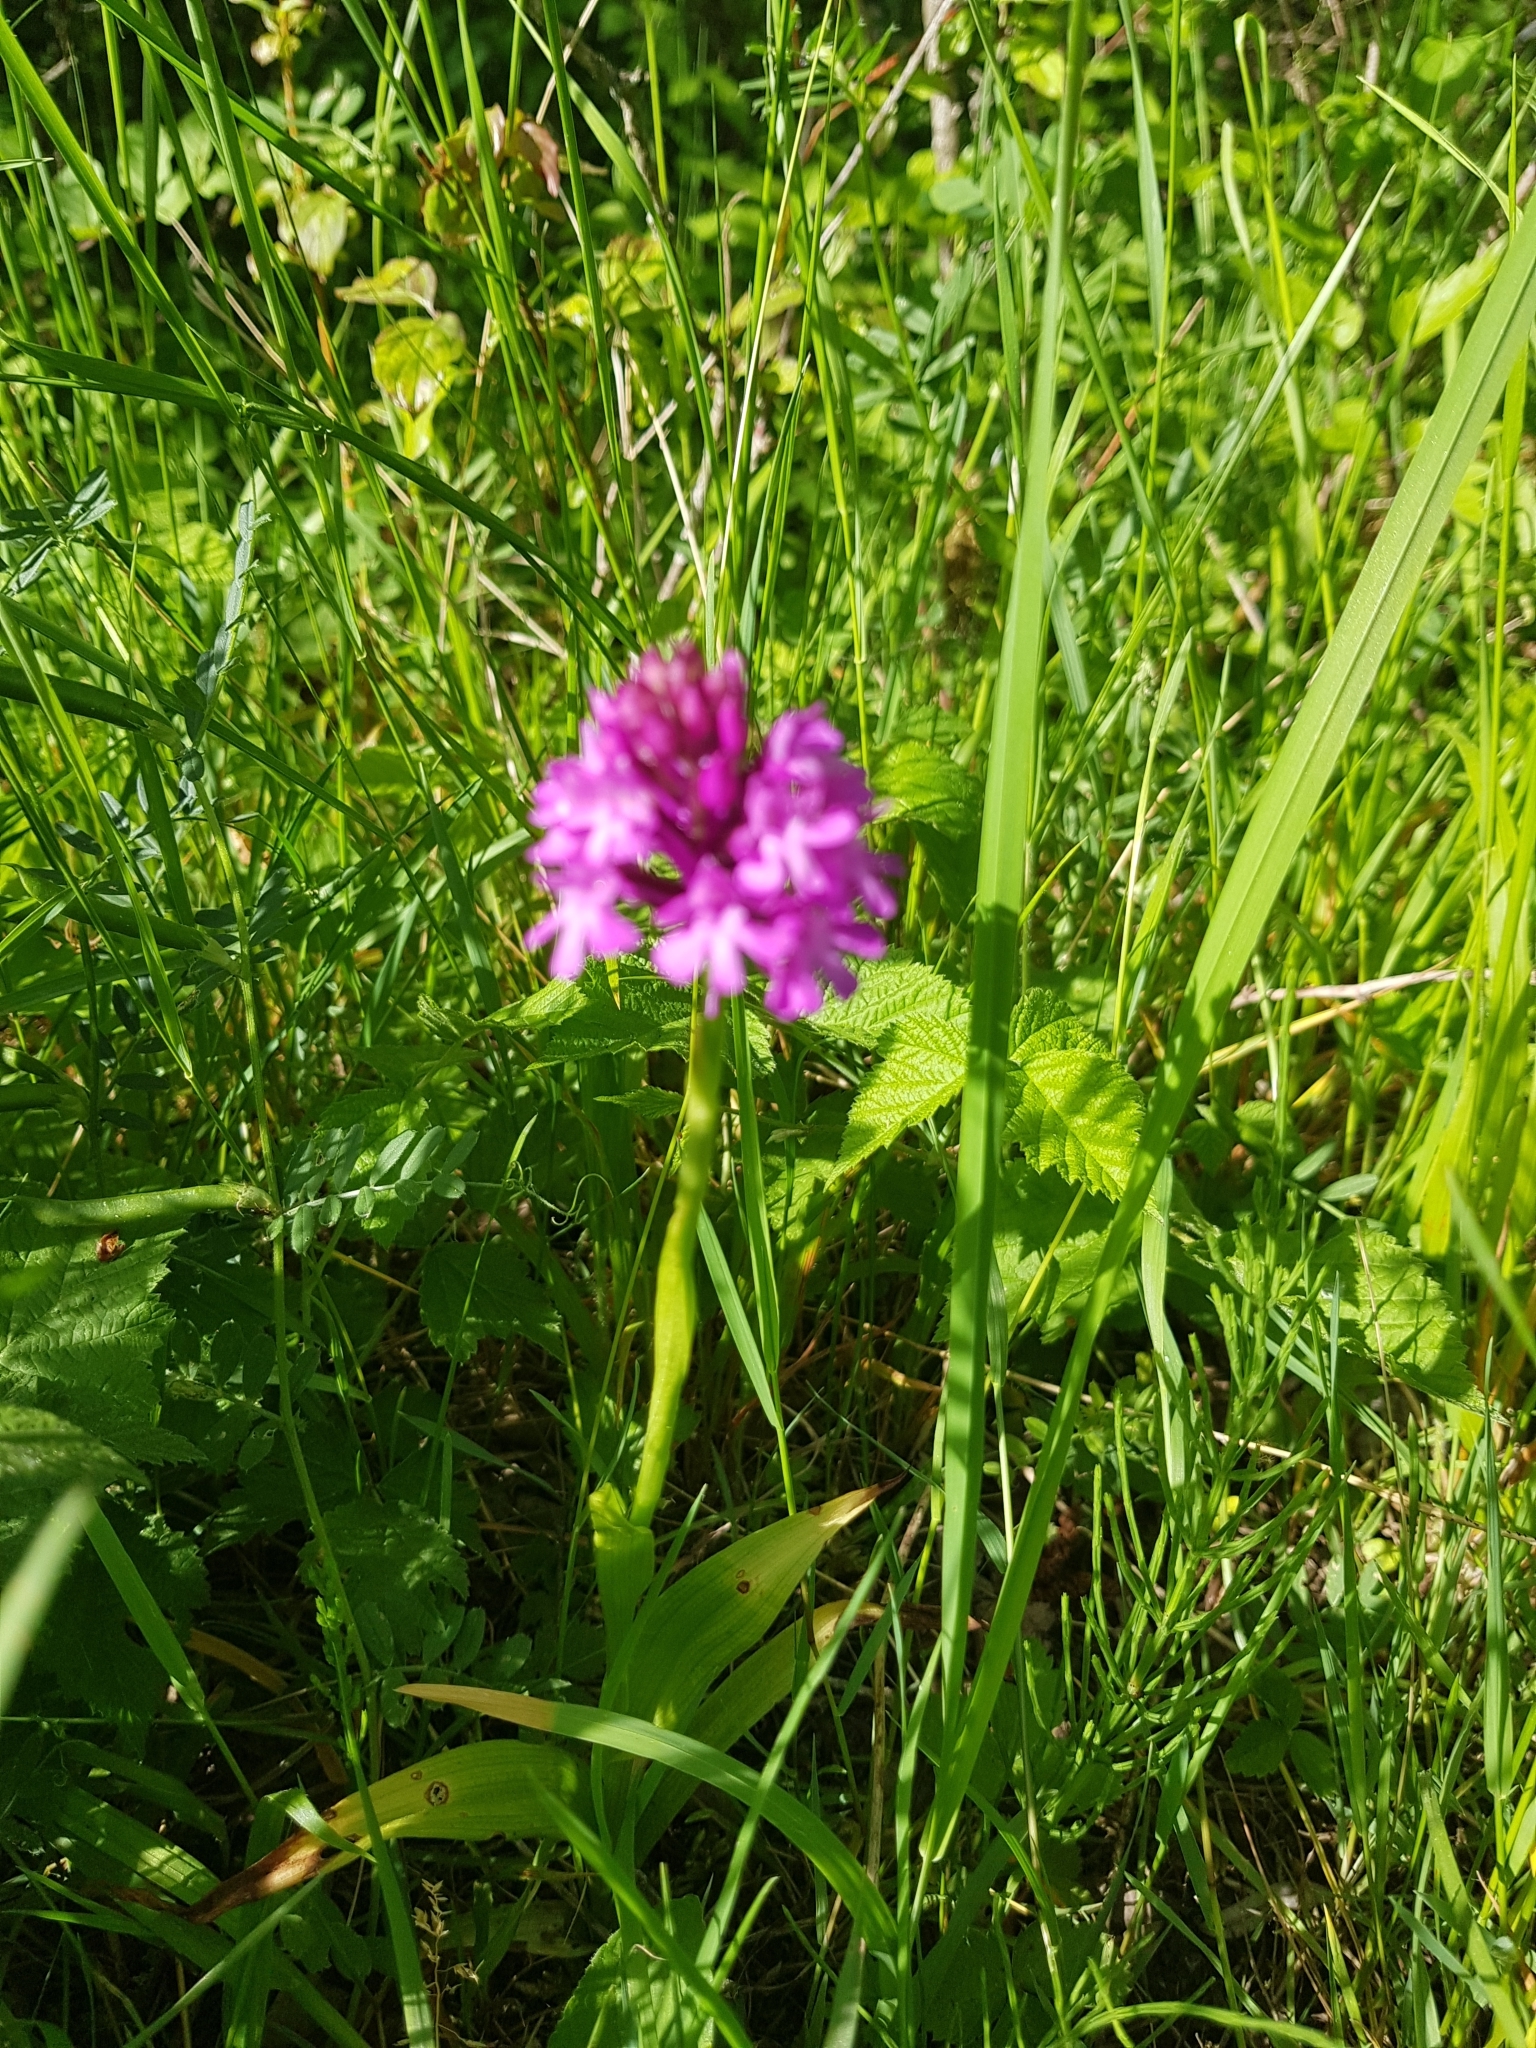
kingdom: Plantae
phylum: Tracheophyta
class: Liliopsida
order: Asparagales
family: Orchidaceae
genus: Anacamptis
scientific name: Anacamptis pyramidalis
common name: Pyramidal orchid
